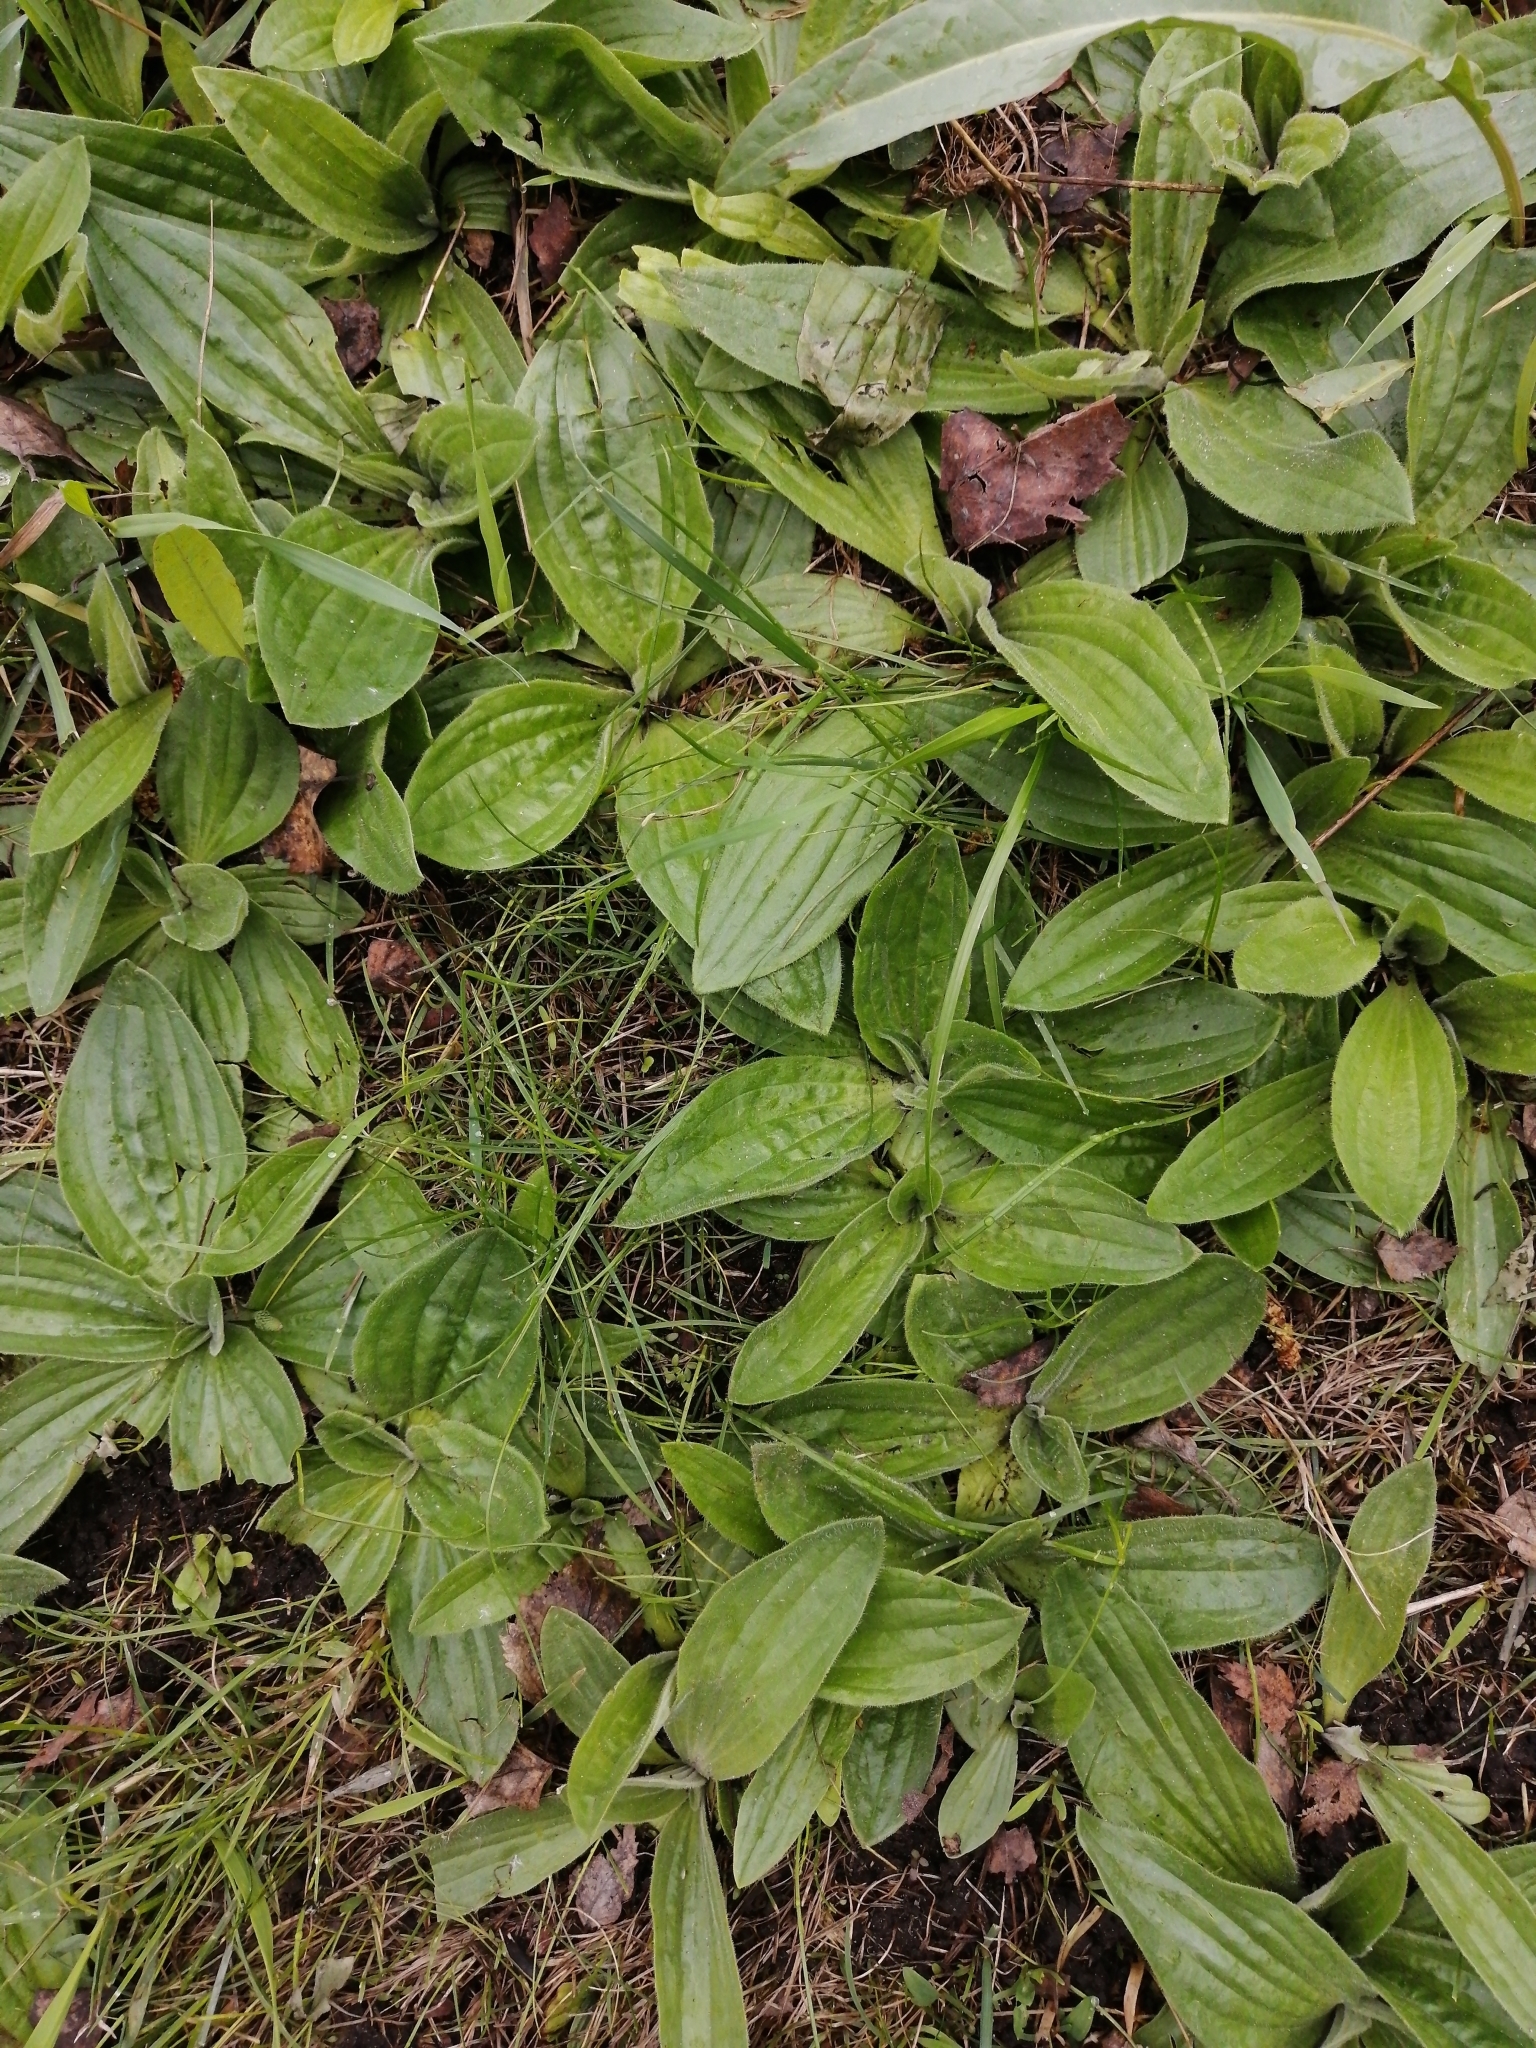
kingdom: Plantae
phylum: Tracheophyta
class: Magnoliopsida
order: Lamiales
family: Plantaginaceae
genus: Plantago
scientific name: Plantago media
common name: Hoary plantain
